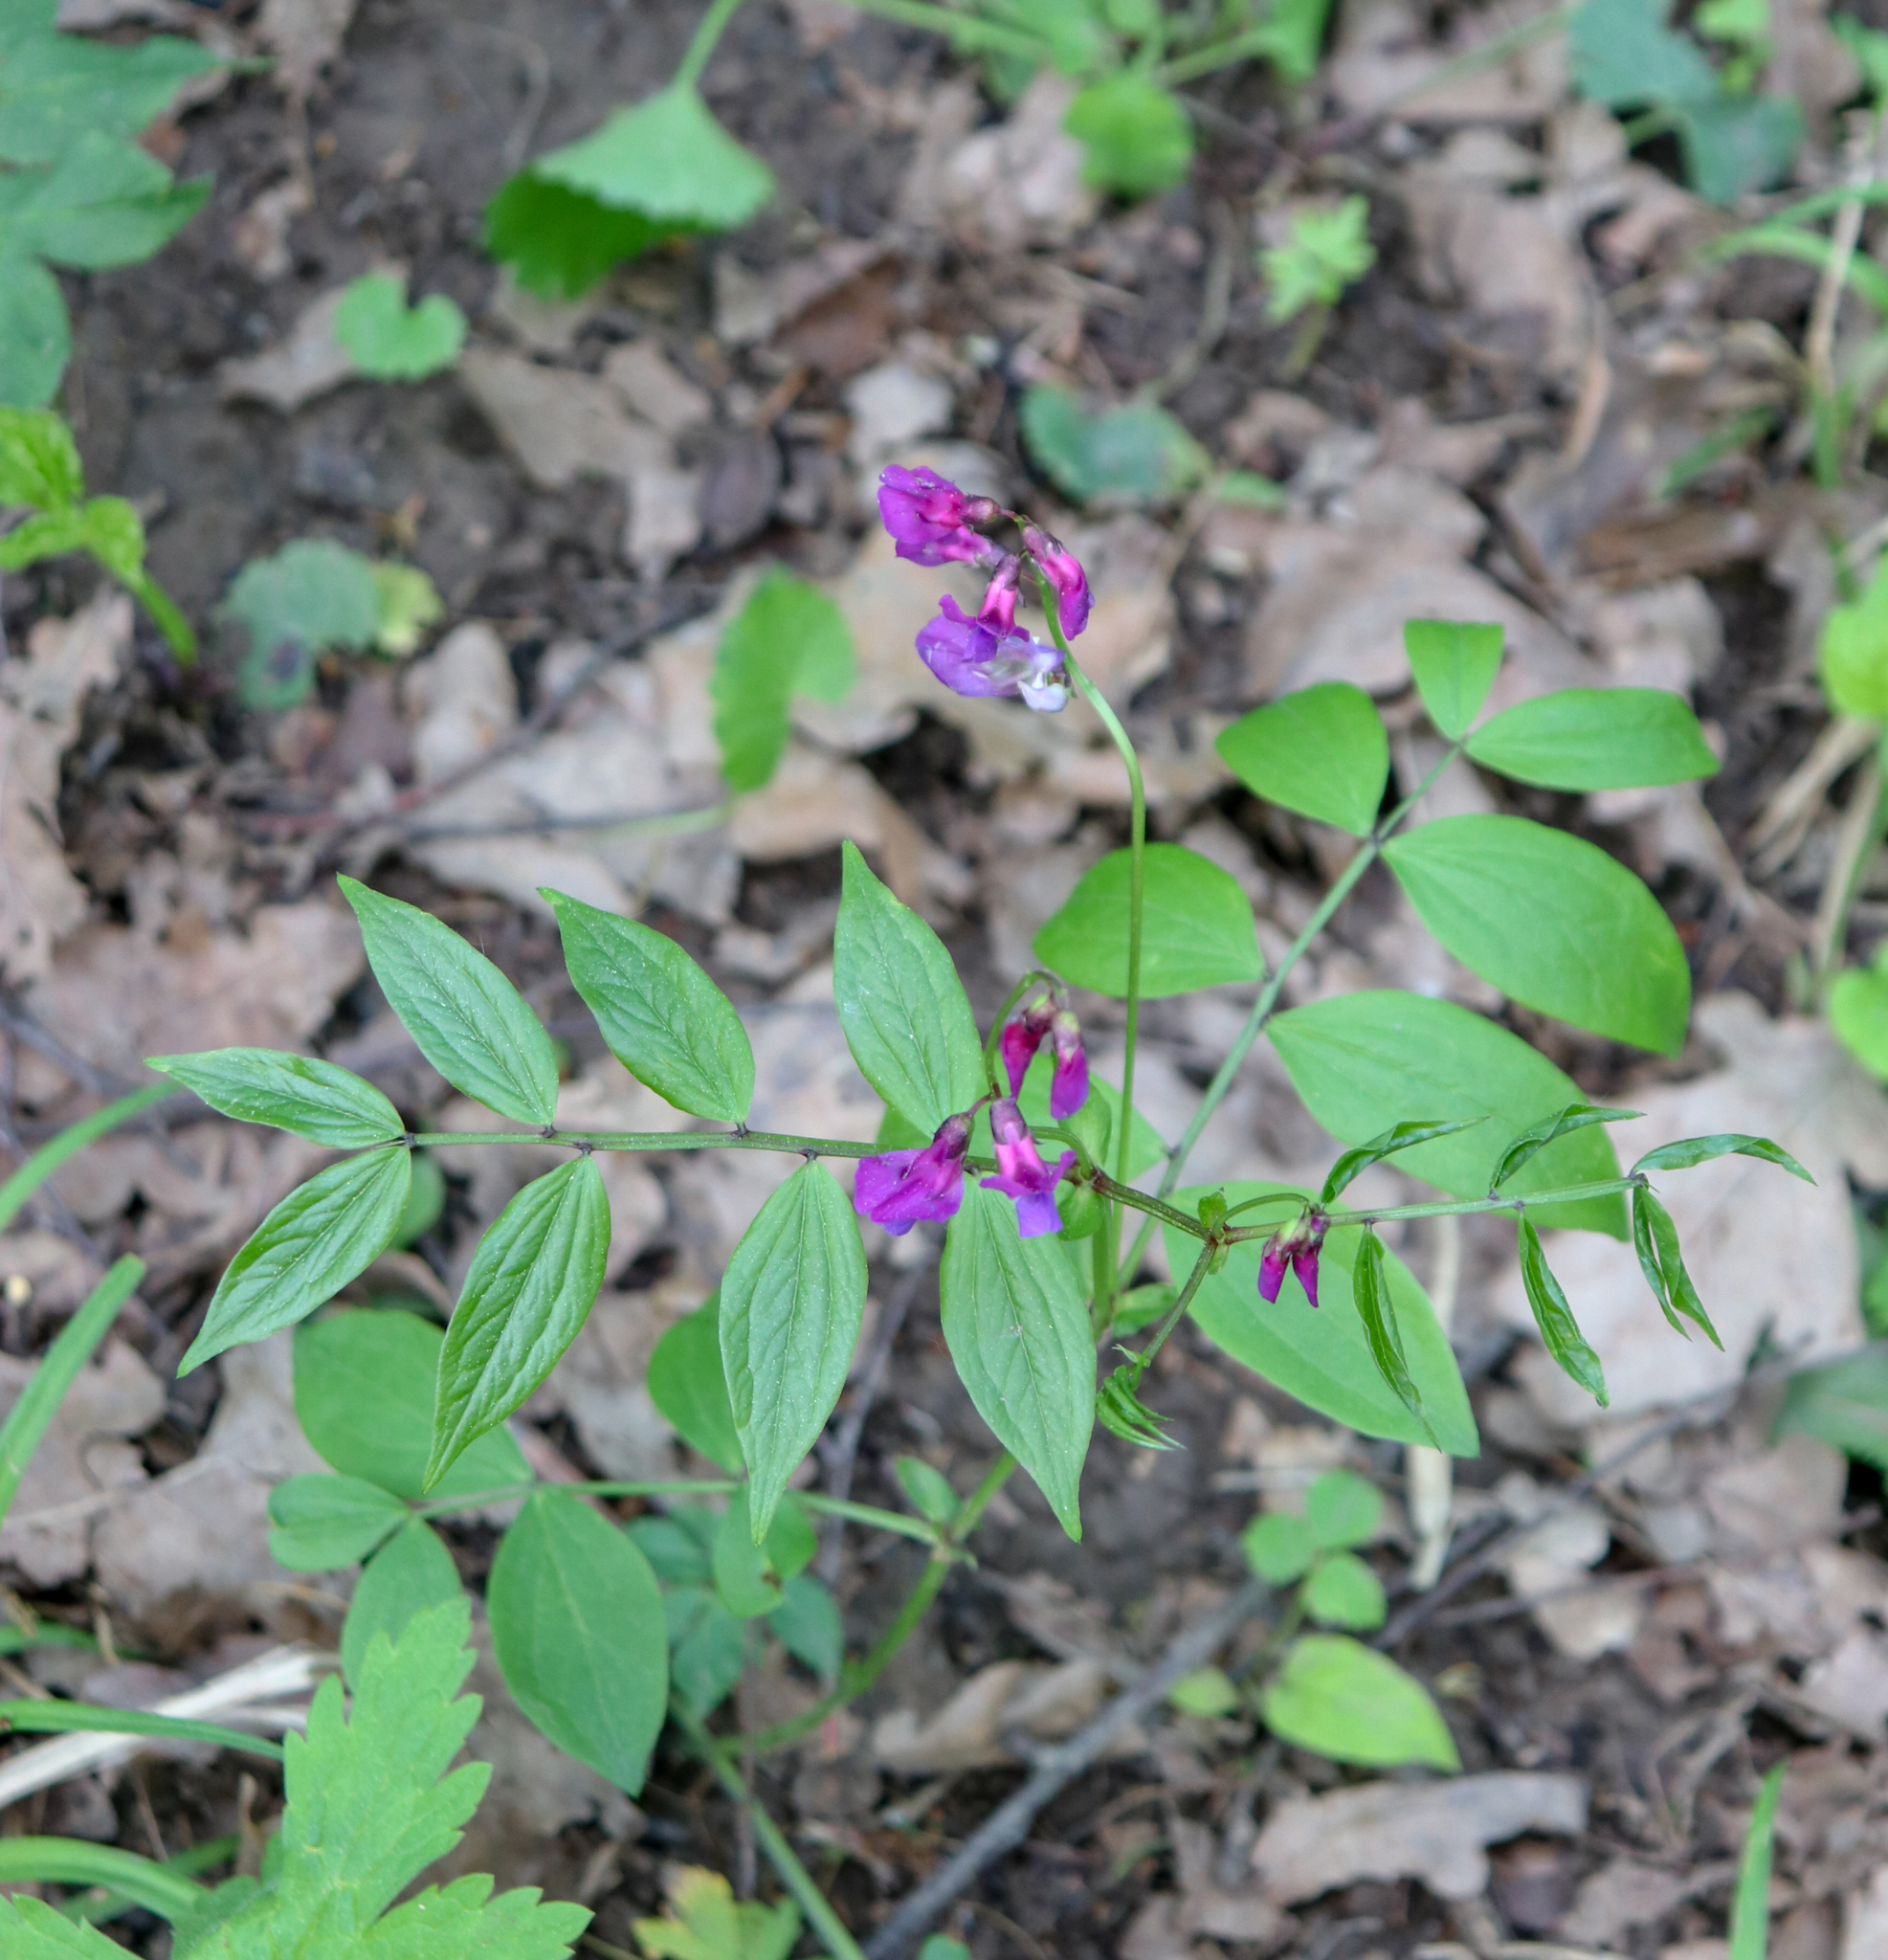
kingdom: Plantae
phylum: Tracheophyta
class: Magnoliopsida
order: Fabales
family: Fabaceae
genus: Lathyrus
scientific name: Lathyrus vernus
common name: Spring pea
